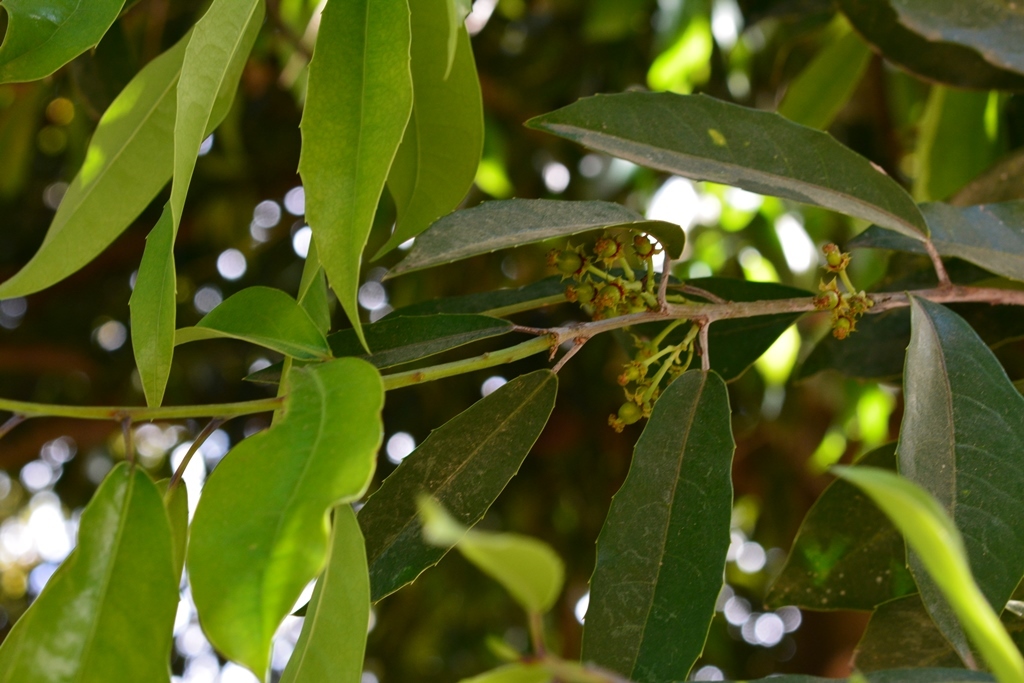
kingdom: Plantae
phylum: Tracheophyta
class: Magnoliopsida
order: Malpighiales
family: Salicaceae
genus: Olmediella
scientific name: Olmediella betschleriana
